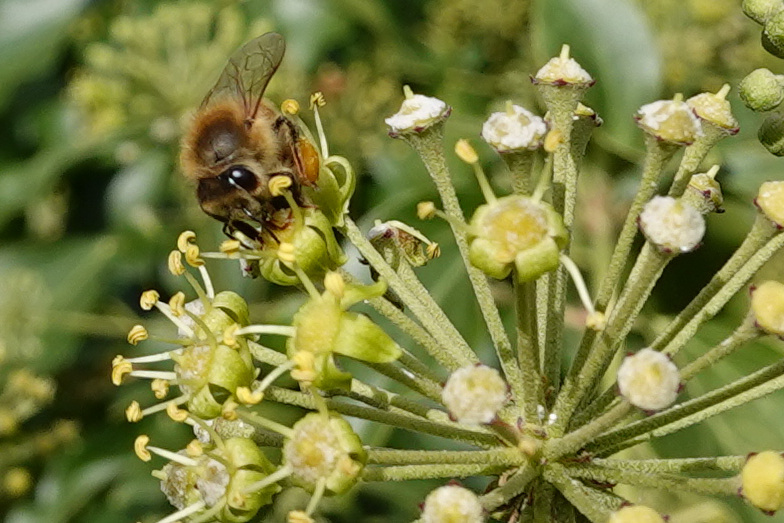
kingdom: Animalia
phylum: Arthropoda
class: Insecta
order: Hymenoptera
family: Apidae
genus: Apis
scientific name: Apis mellifera
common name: Honey bee
